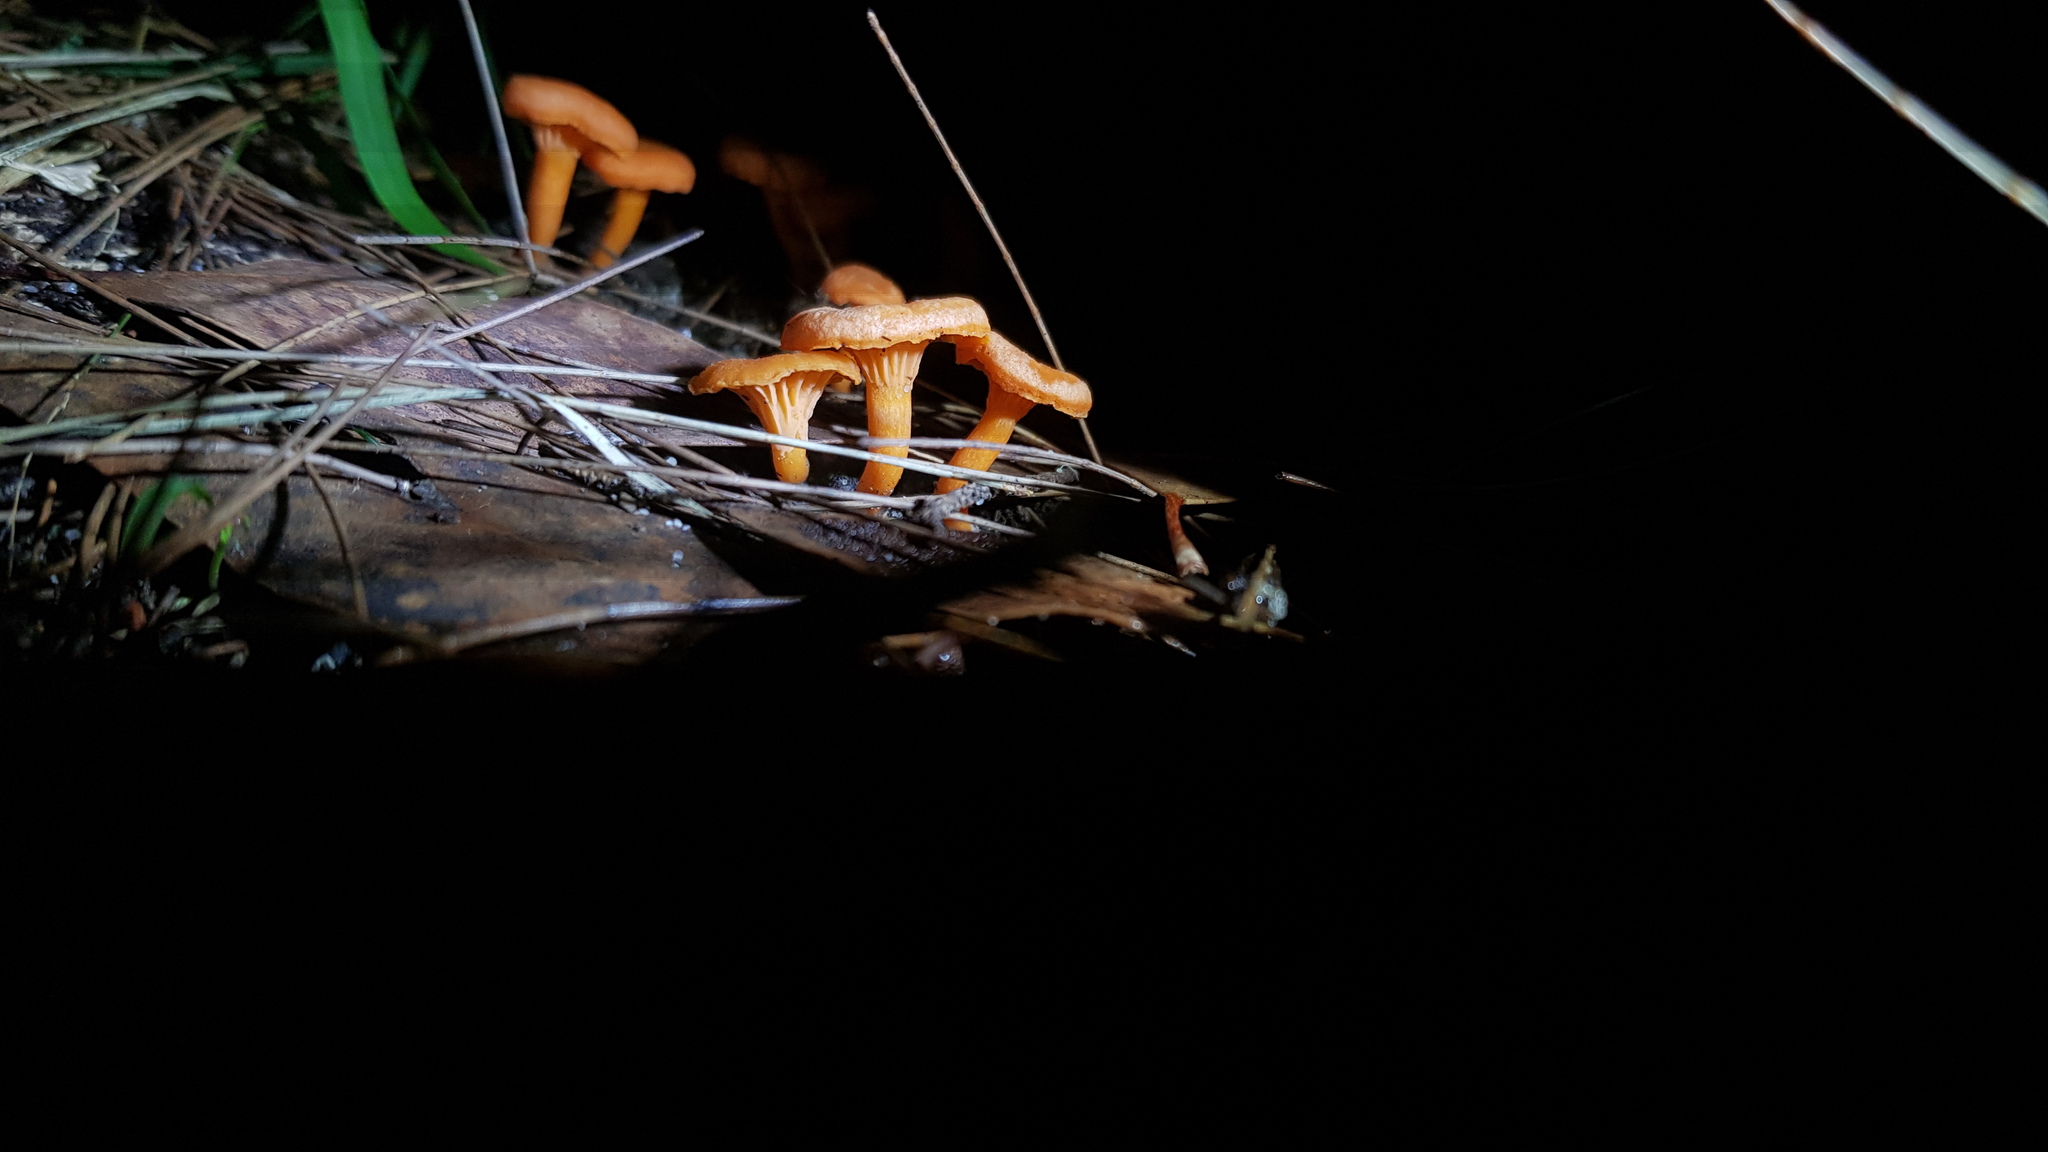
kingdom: Fungi
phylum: Basidiomycota
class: Agaricomycetes
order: Cantharellales
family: Hydnaceae
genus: Cantharellus
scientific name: Cantharellus
